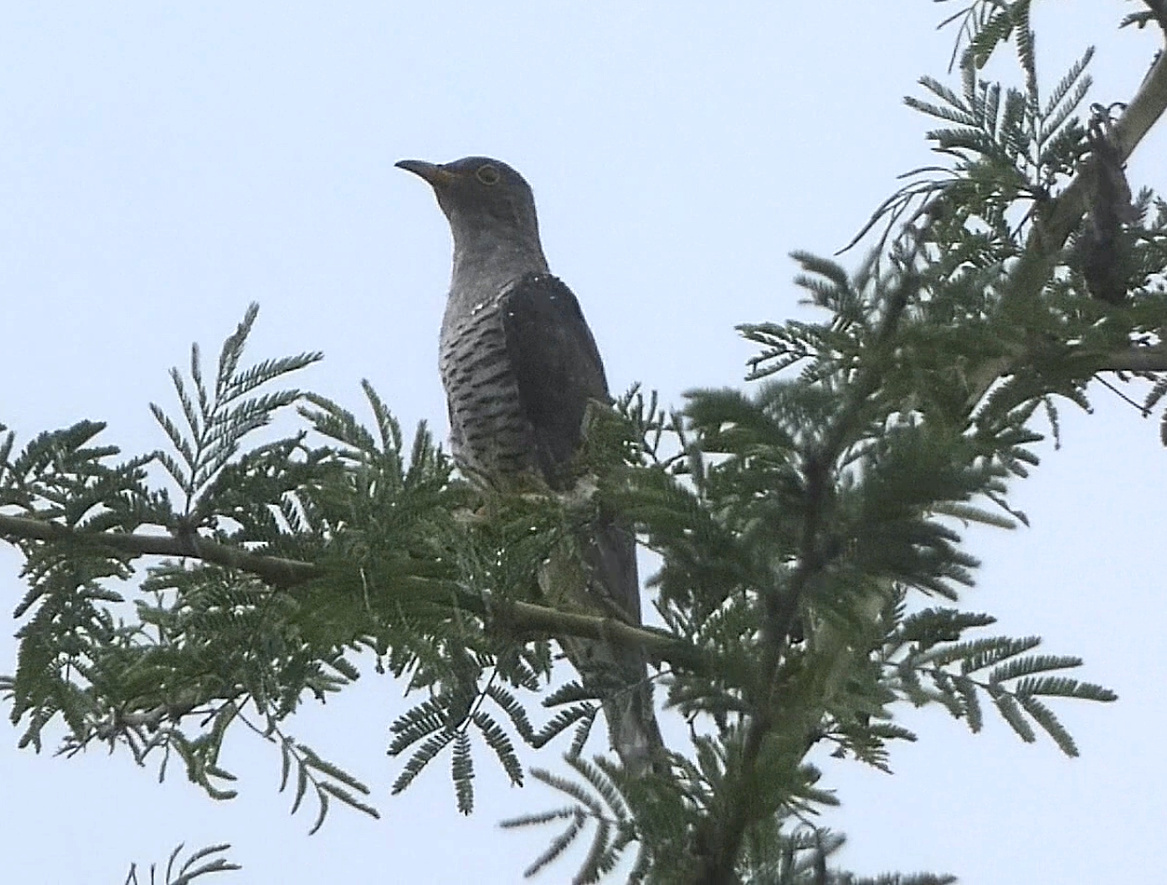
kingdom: Animalia
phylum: Chordata
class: Aves
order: Cuculiformes
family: Cuculidae
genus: Cuculus
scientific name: Cuculus rochii
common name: Madagascar cuckoo
